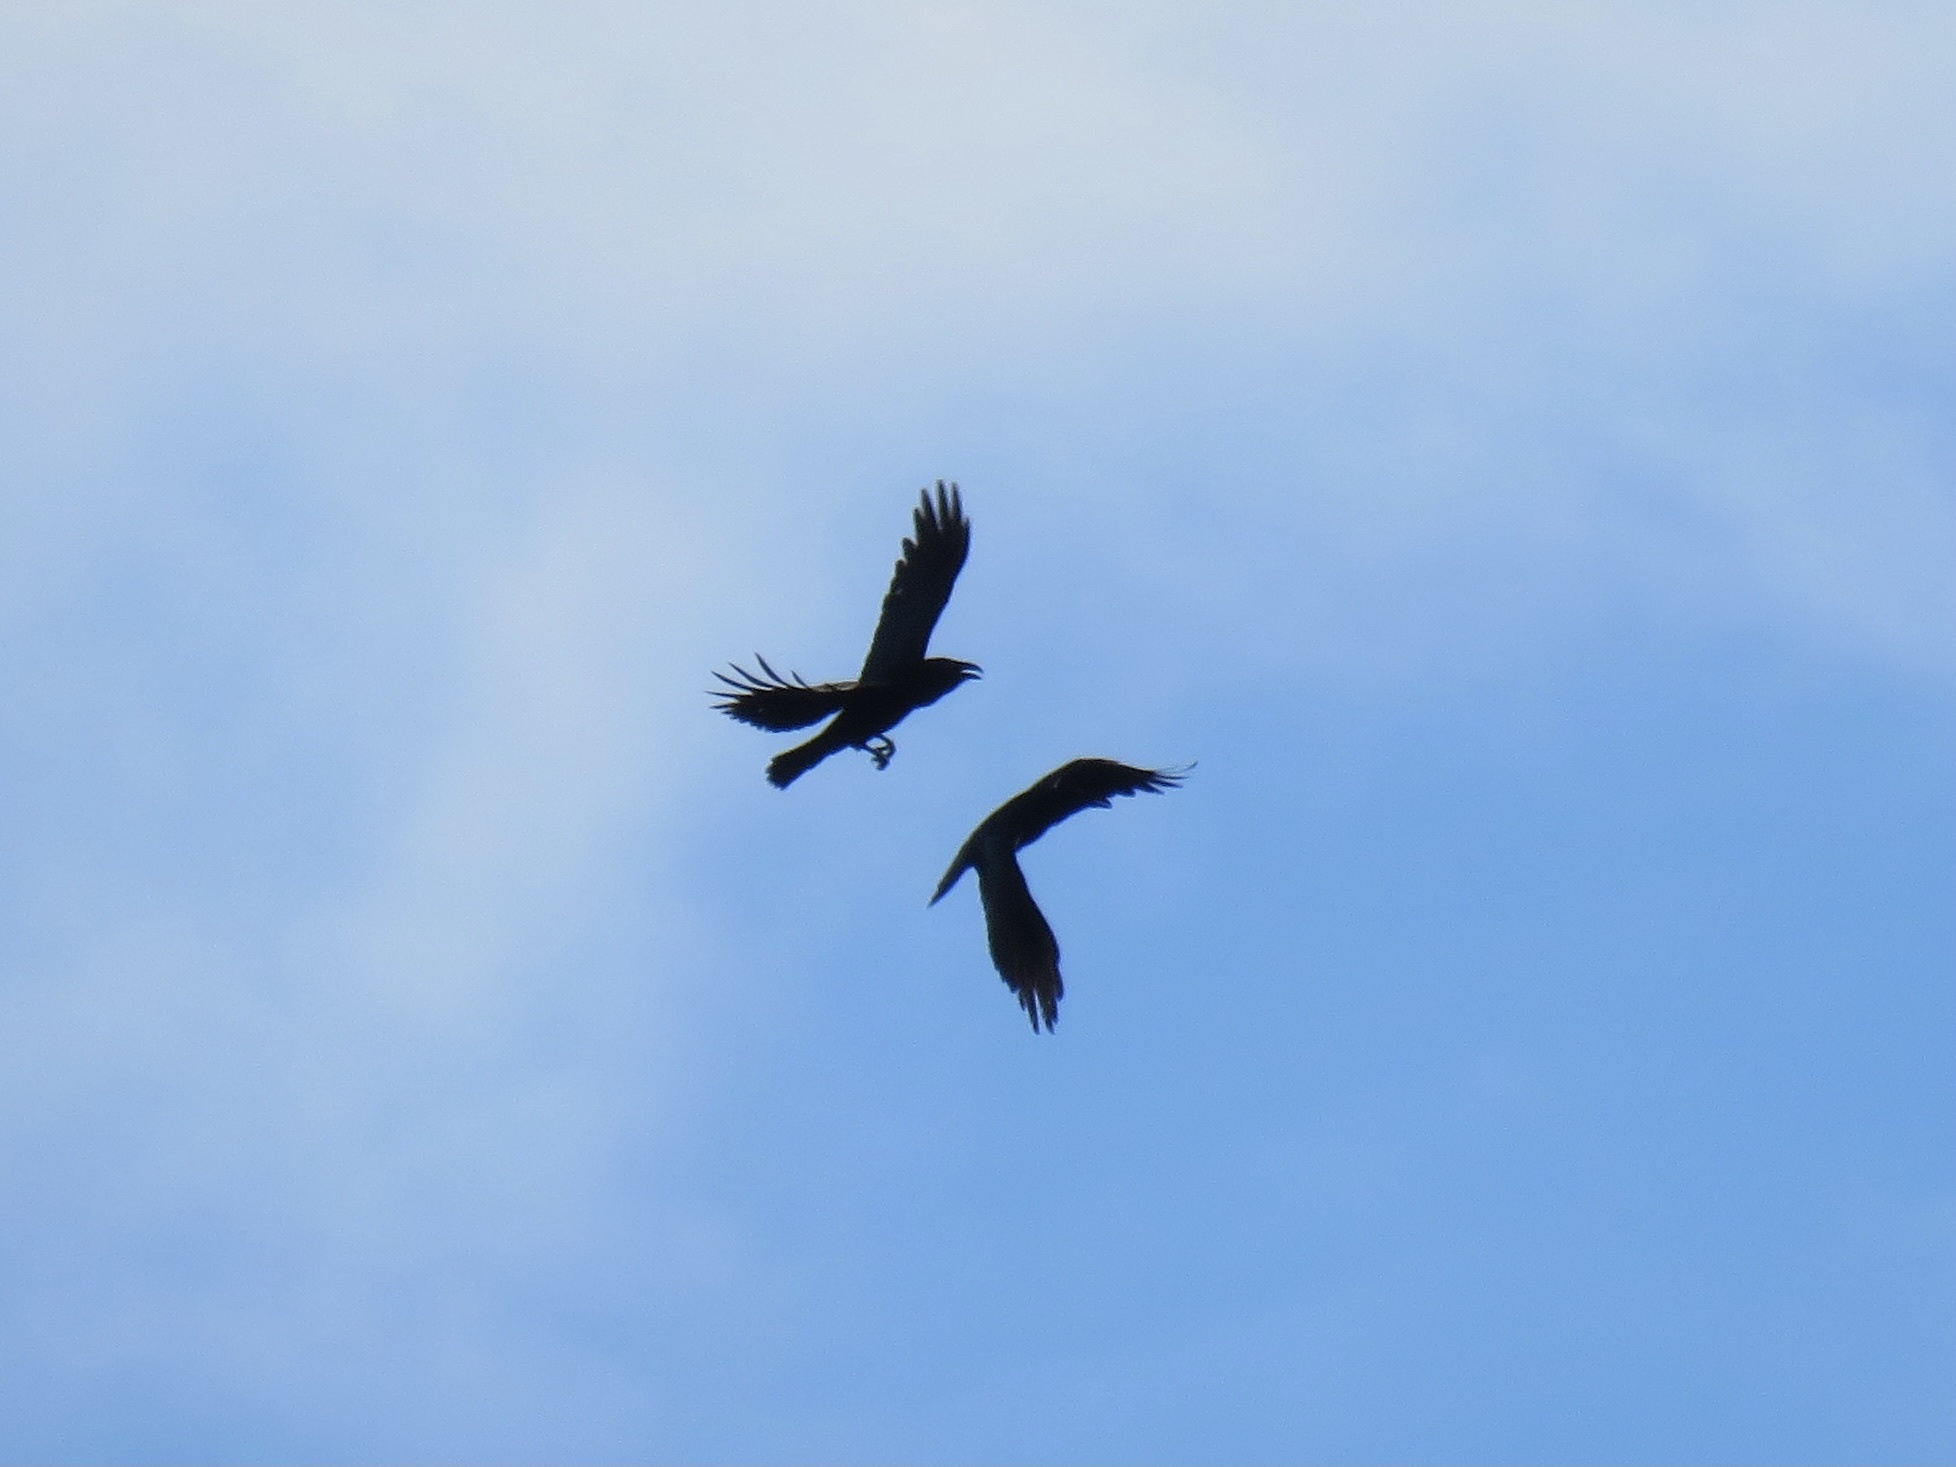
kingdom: Animalia
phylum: Chordata
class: Aves
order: Passeriformes
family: Corvidae
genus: Corvus
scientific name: Corvus corax
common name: Common raven
